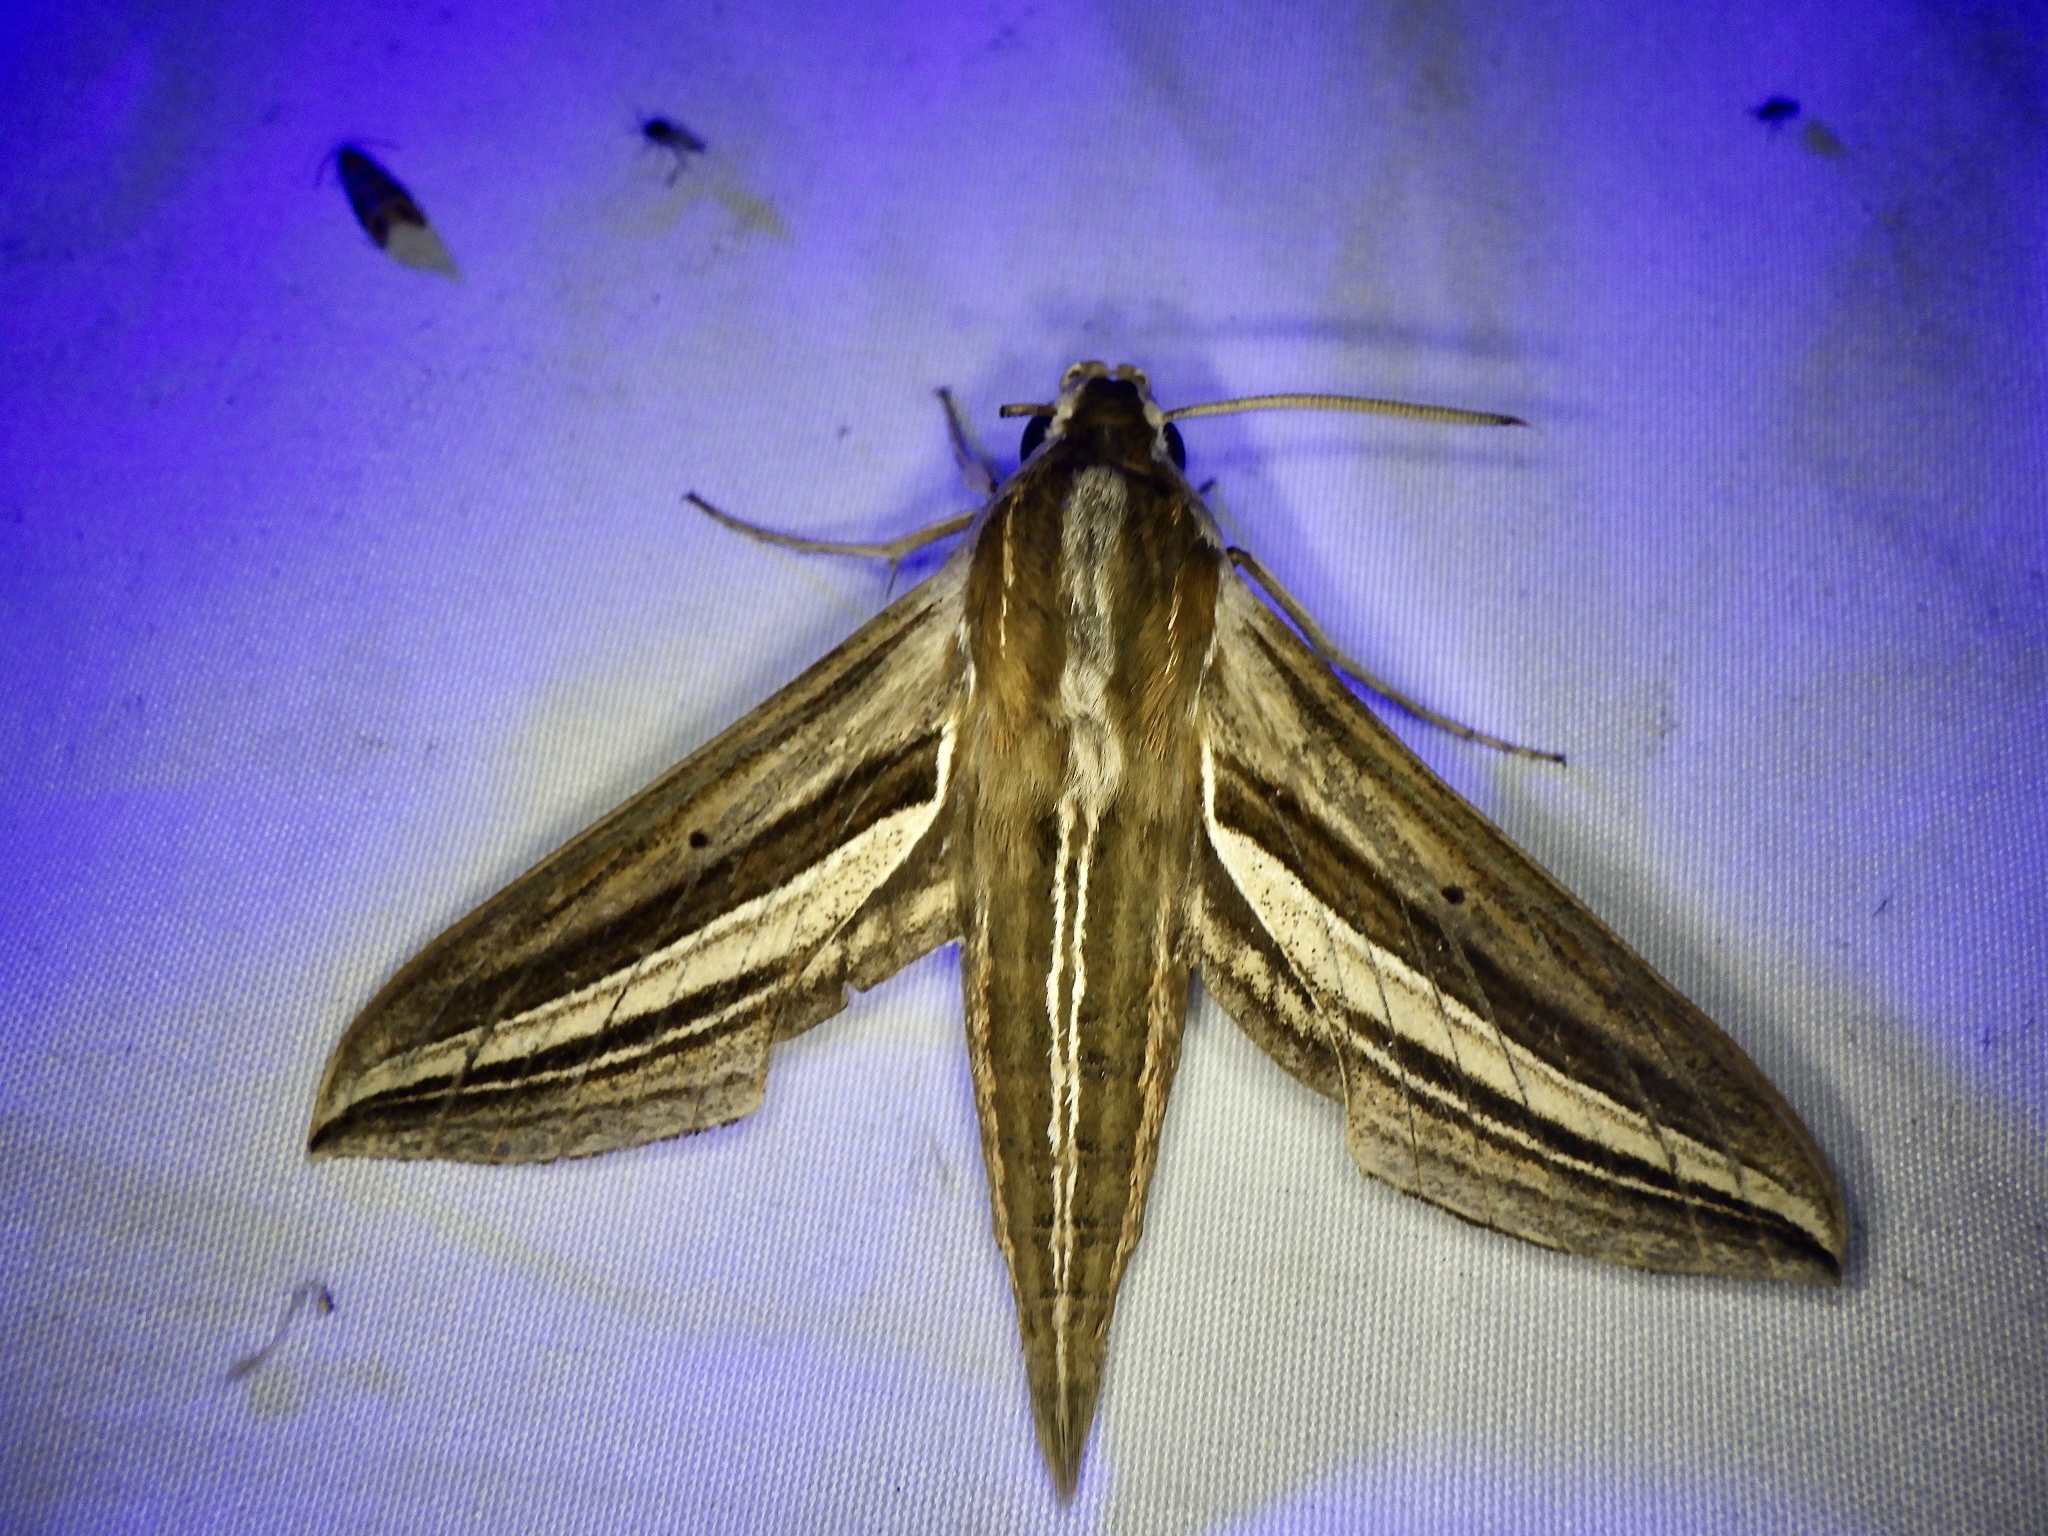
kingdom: Animalia
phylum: Arthropoda
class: Insecta
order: Lepidoptera
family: Sphingidae
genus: Theretra
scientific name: Theretra oldenlandiae
